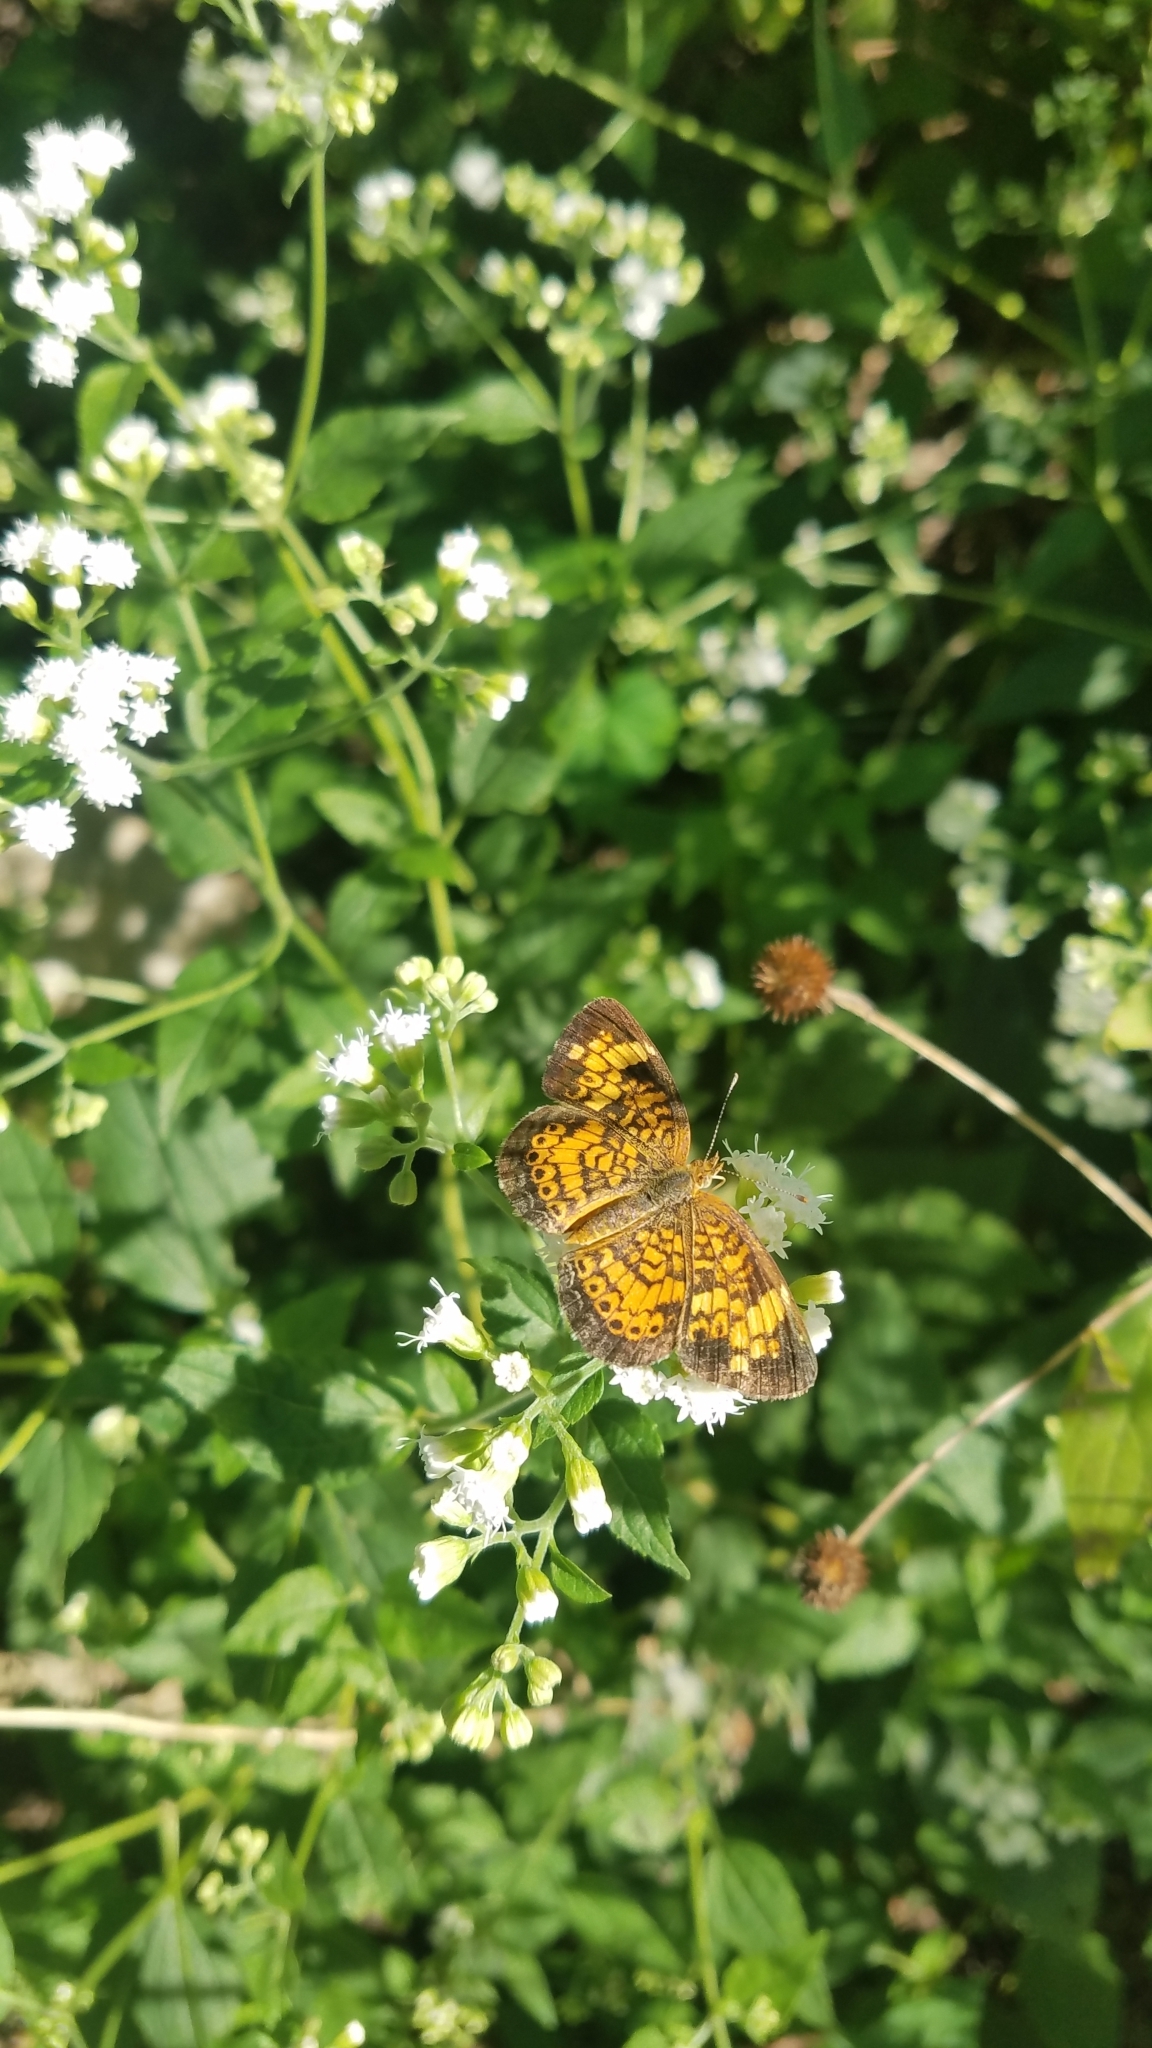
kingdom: Animalia
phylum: Arthropoda
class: Insecta
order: Lepidoptera
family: Nymphalidae
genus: Phyciodes
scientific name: Phyciodes tharos
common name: Pearl crescent
